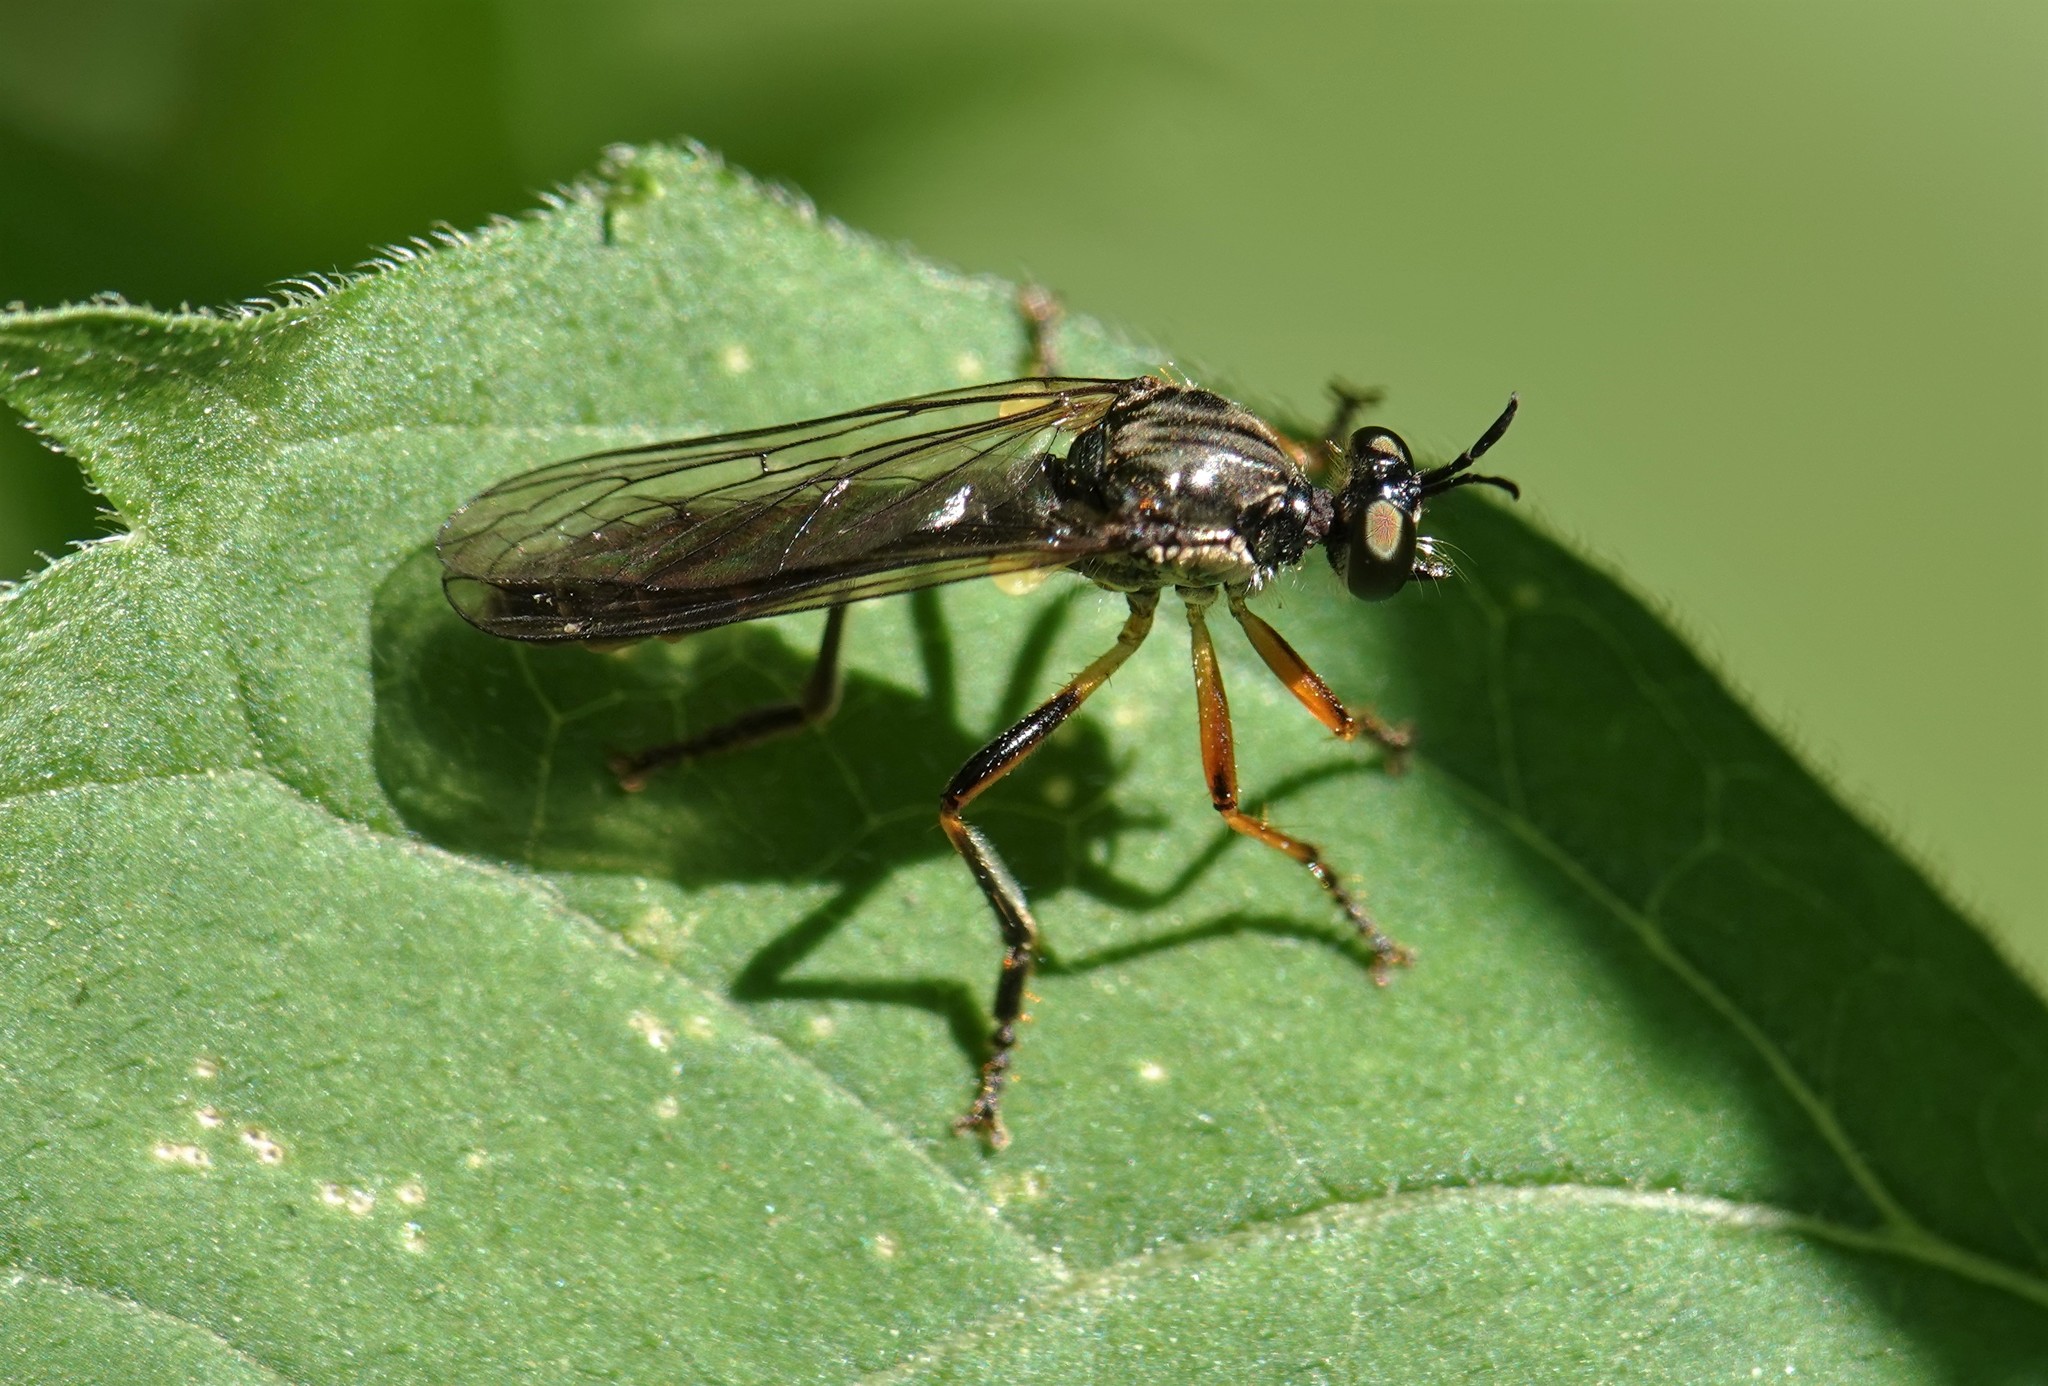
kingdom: Animalia
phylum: Arthropoda
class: Insecta
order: Diptera
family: Asilidae
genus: Dioctria
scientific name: Dioctria hyalipennis
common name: Stripe-legged robberfly
